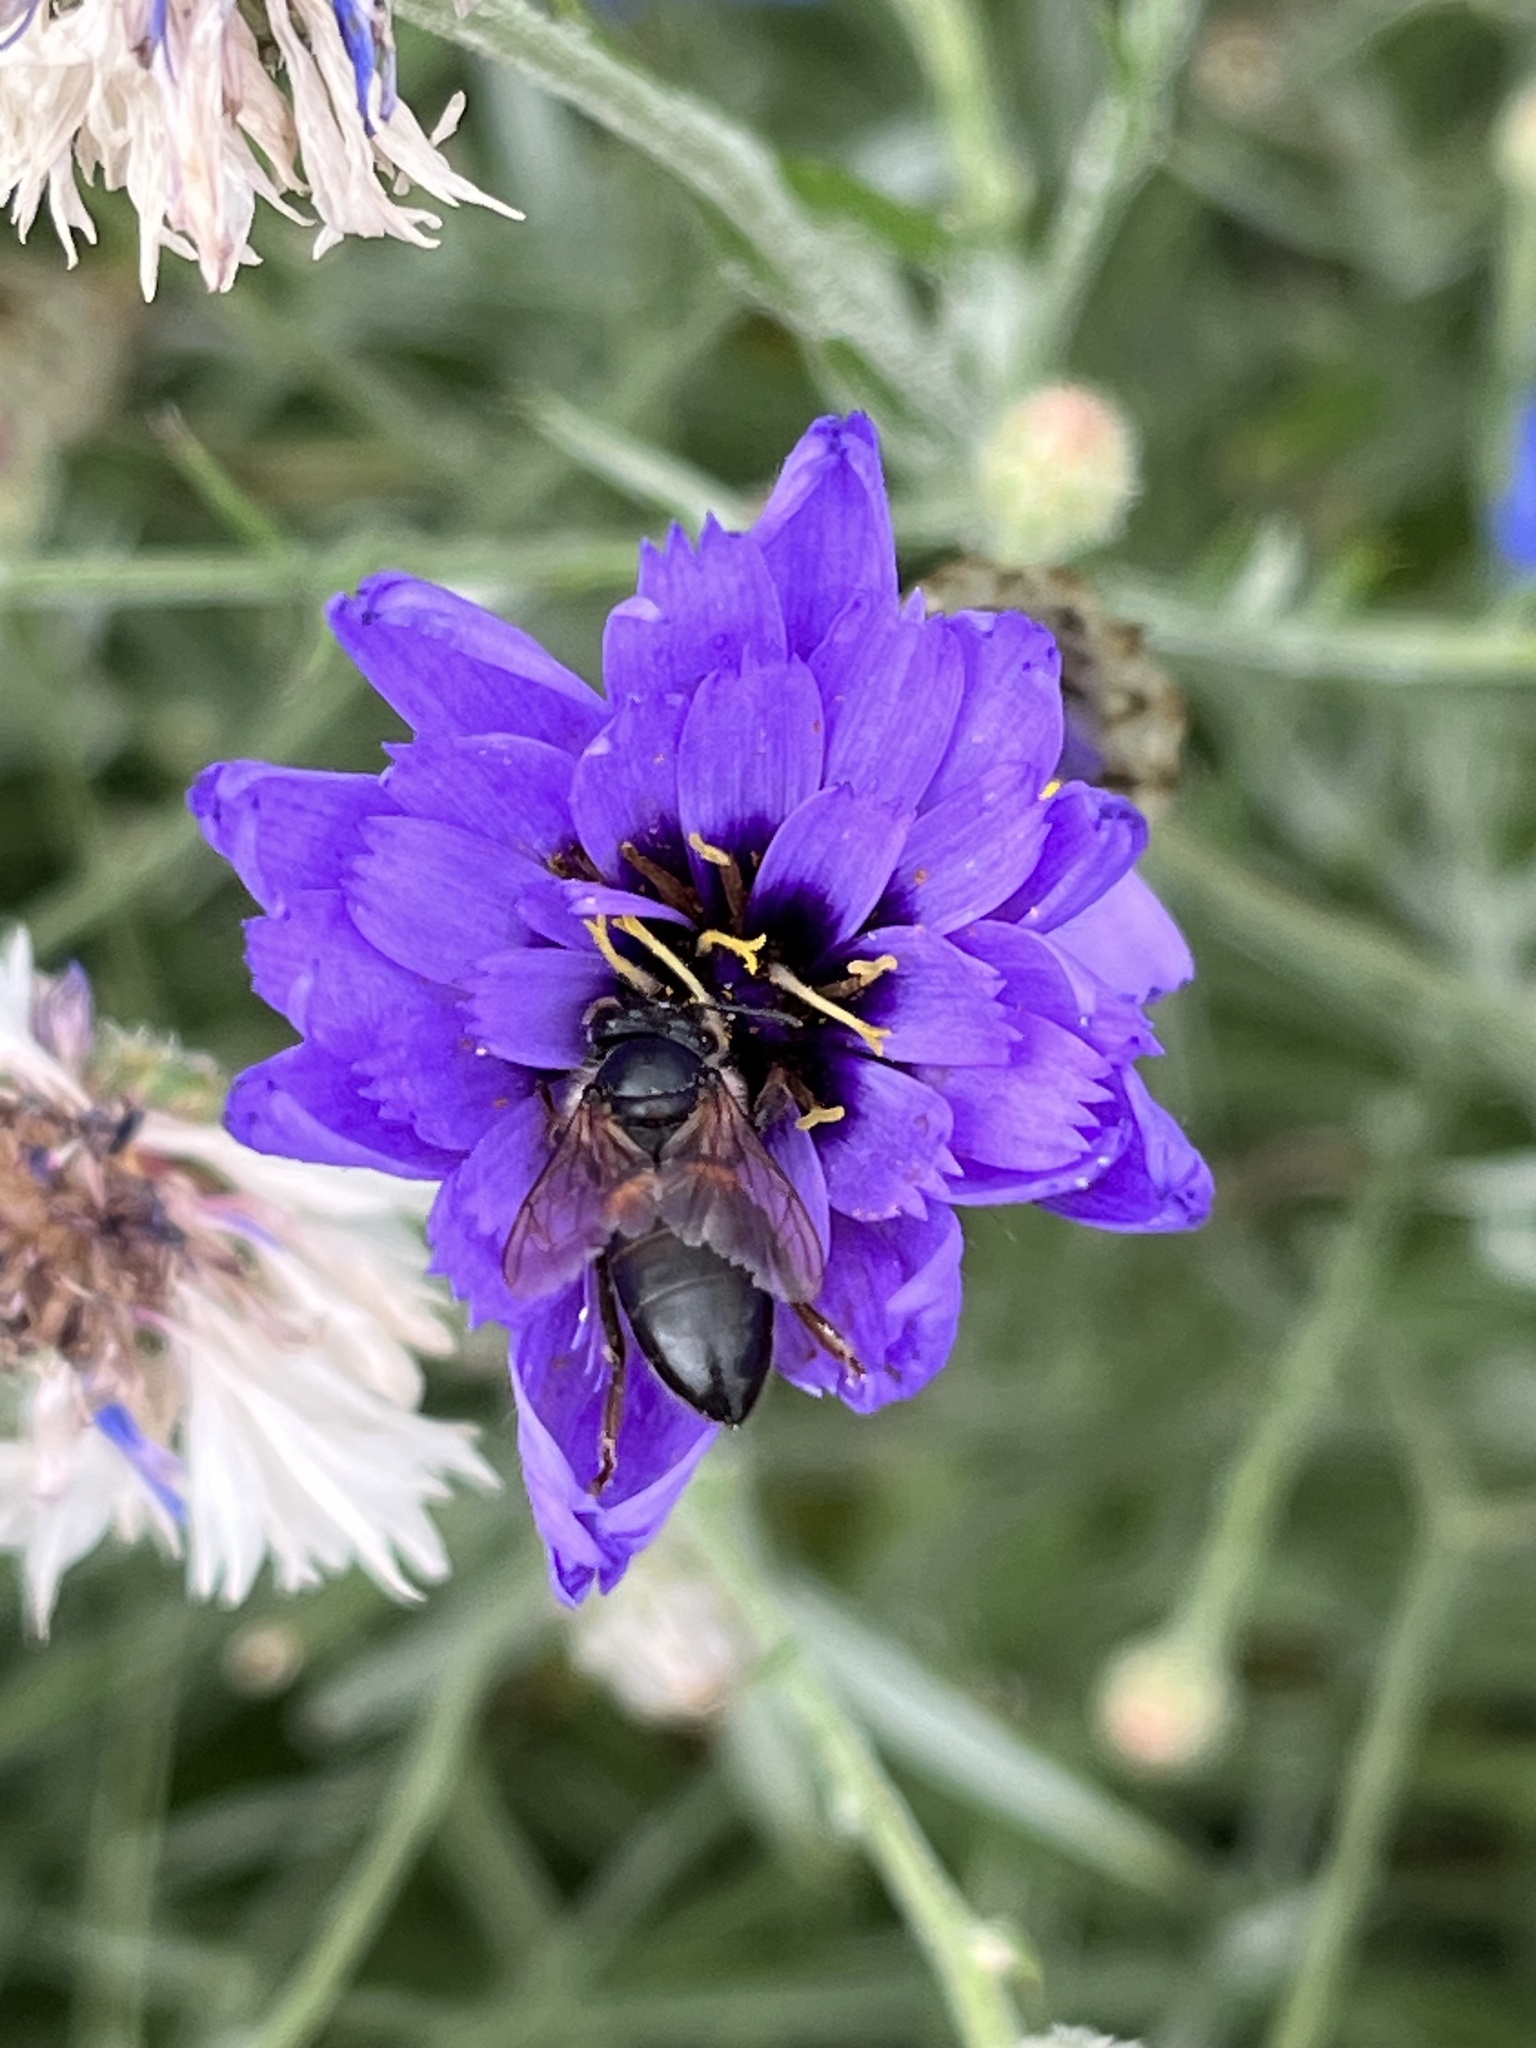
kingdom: Animalia
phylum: Arthropoda
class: Insecta
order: Hymenoptera
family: Apidae
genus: Apis
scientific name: Apis mellifera
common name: Honey bee
